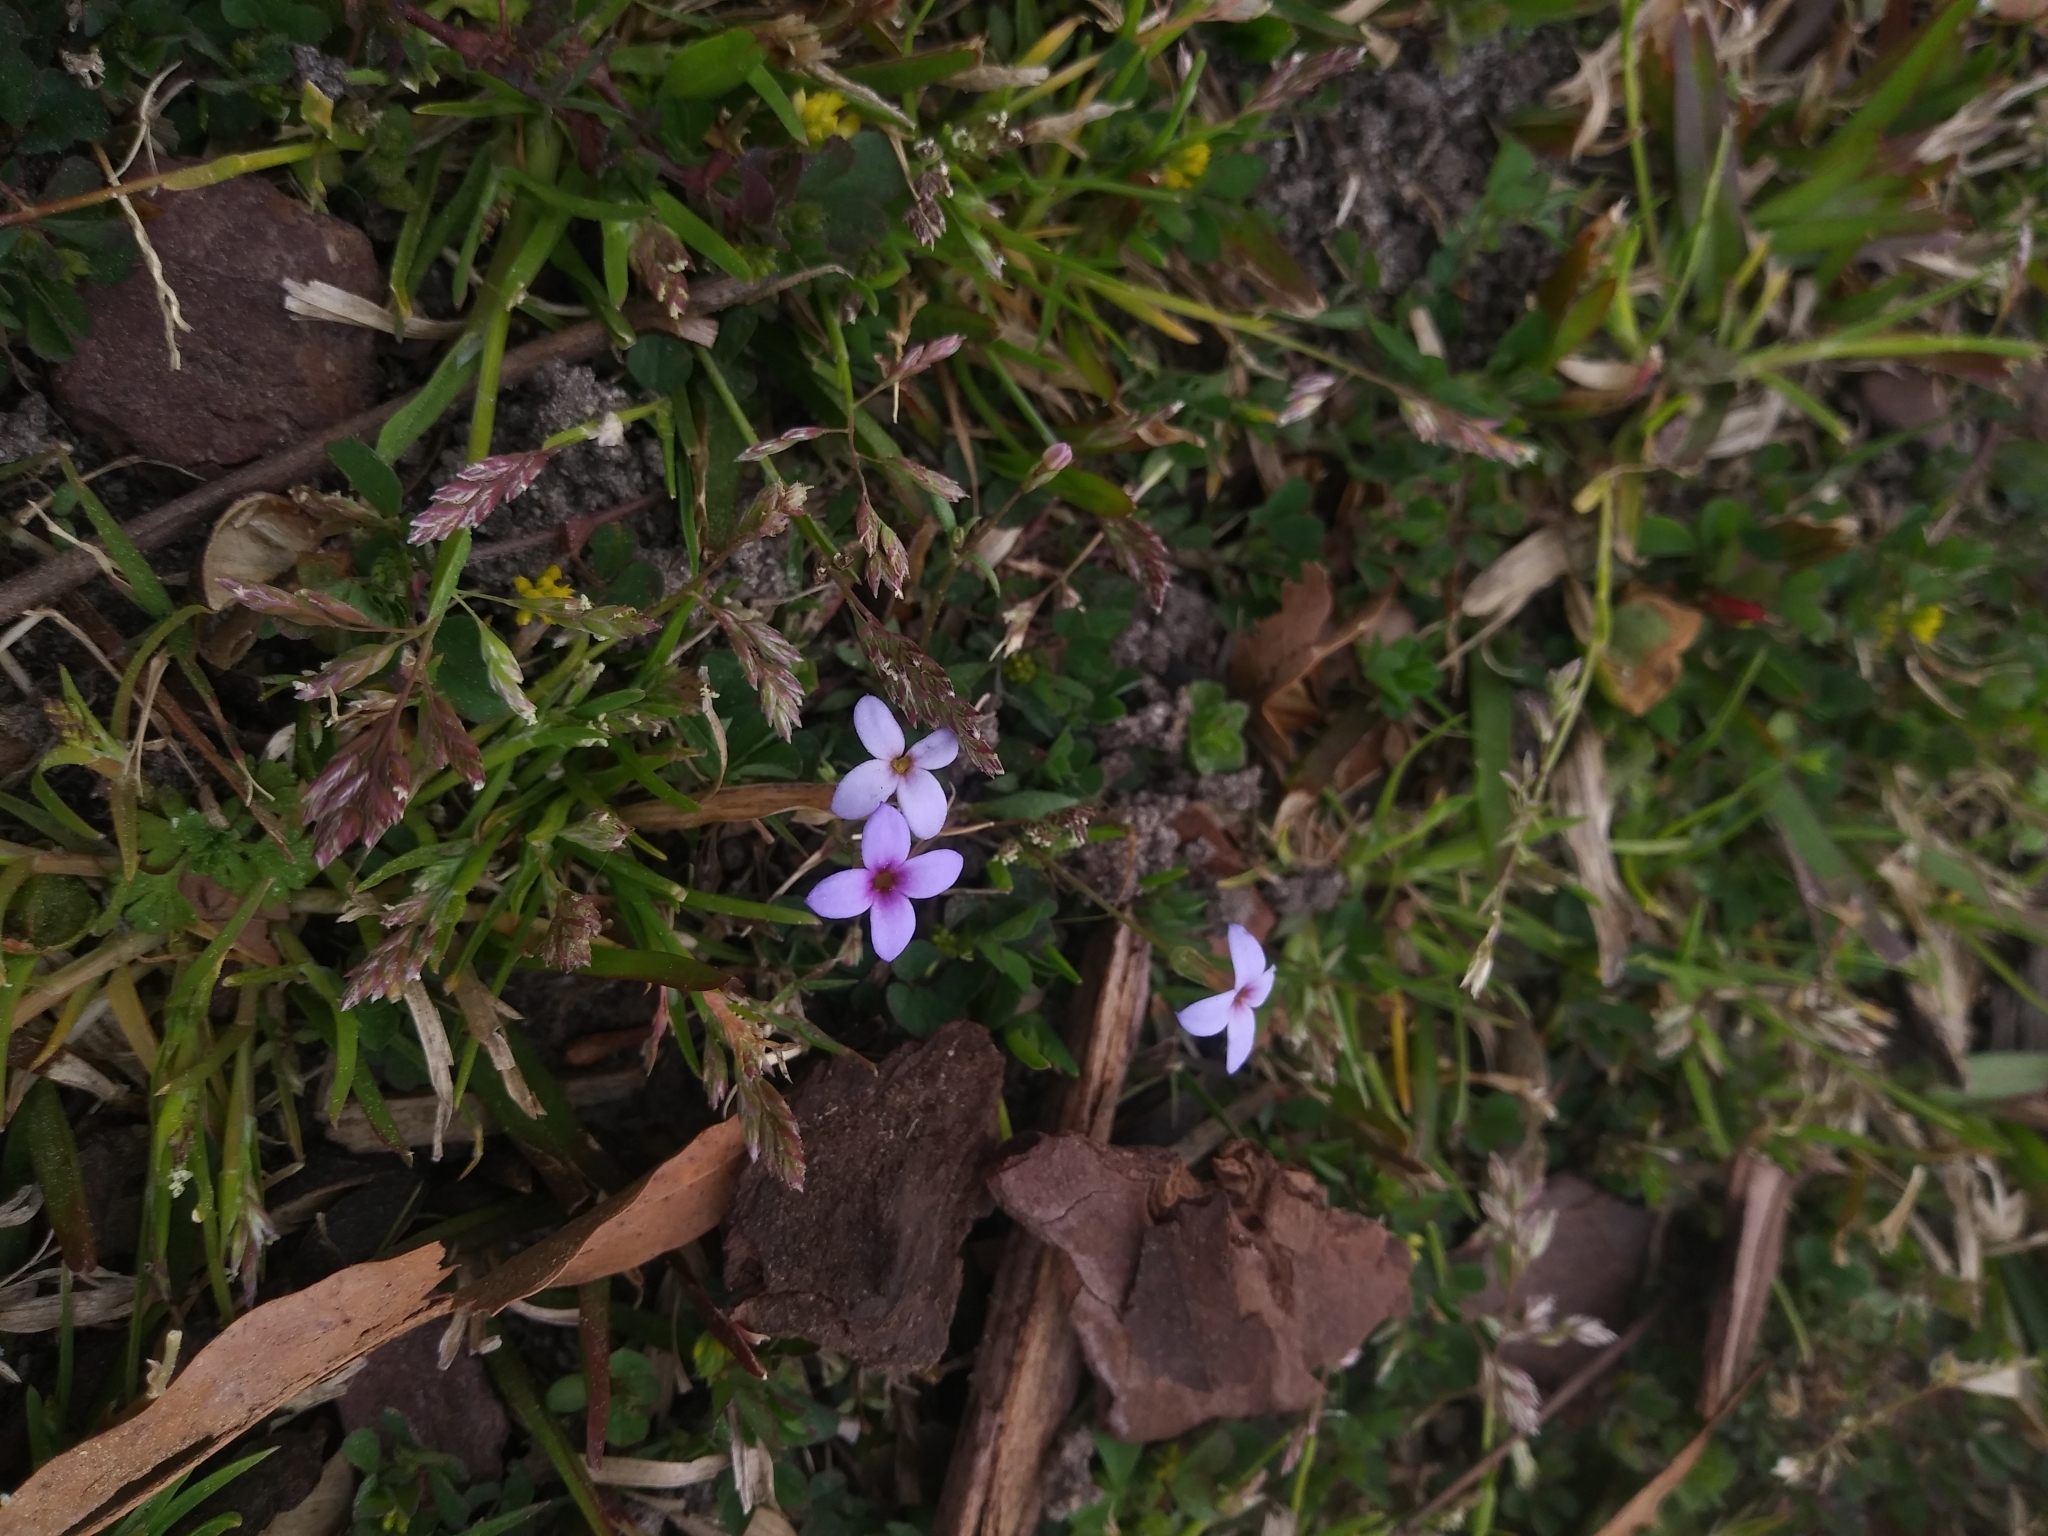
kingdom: Plantae
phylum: Tracheophyta
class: Magnoliopsida
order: Gentianales
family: Rubiaceae
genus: Houstonia
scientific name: Houstonia pusilla
